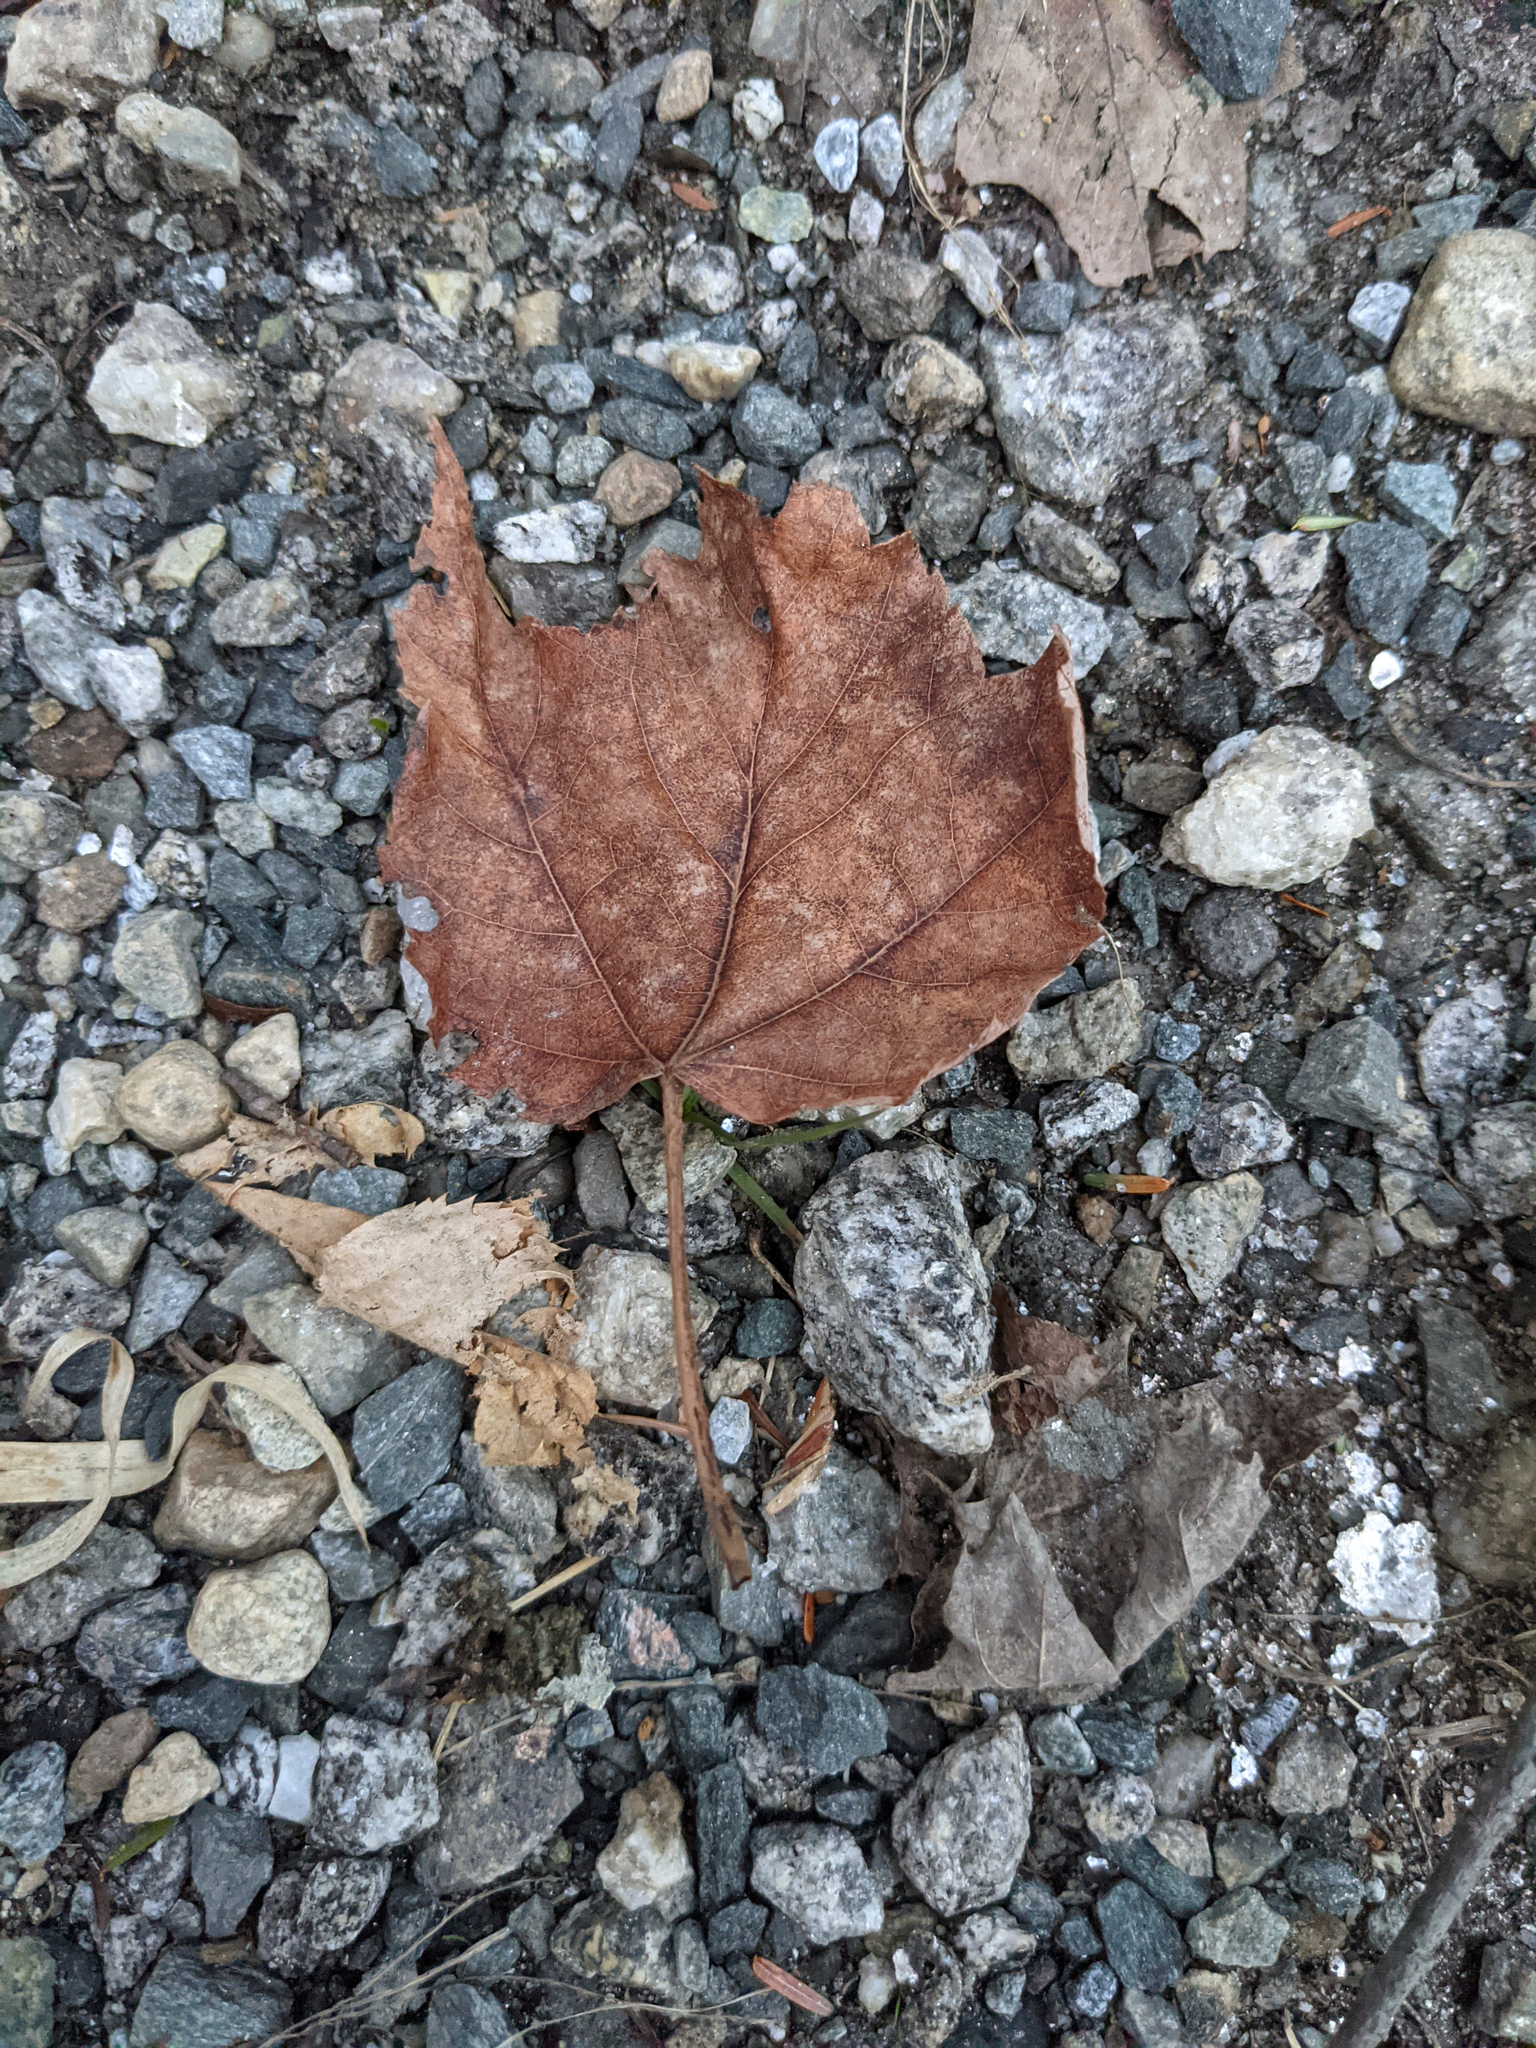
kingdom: Plantae
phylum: Tracheophyta
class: Magnoliopsida
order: Sapindales
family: Sapindaceae
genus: Acer
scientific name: Acer rubrum
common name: Red maple
